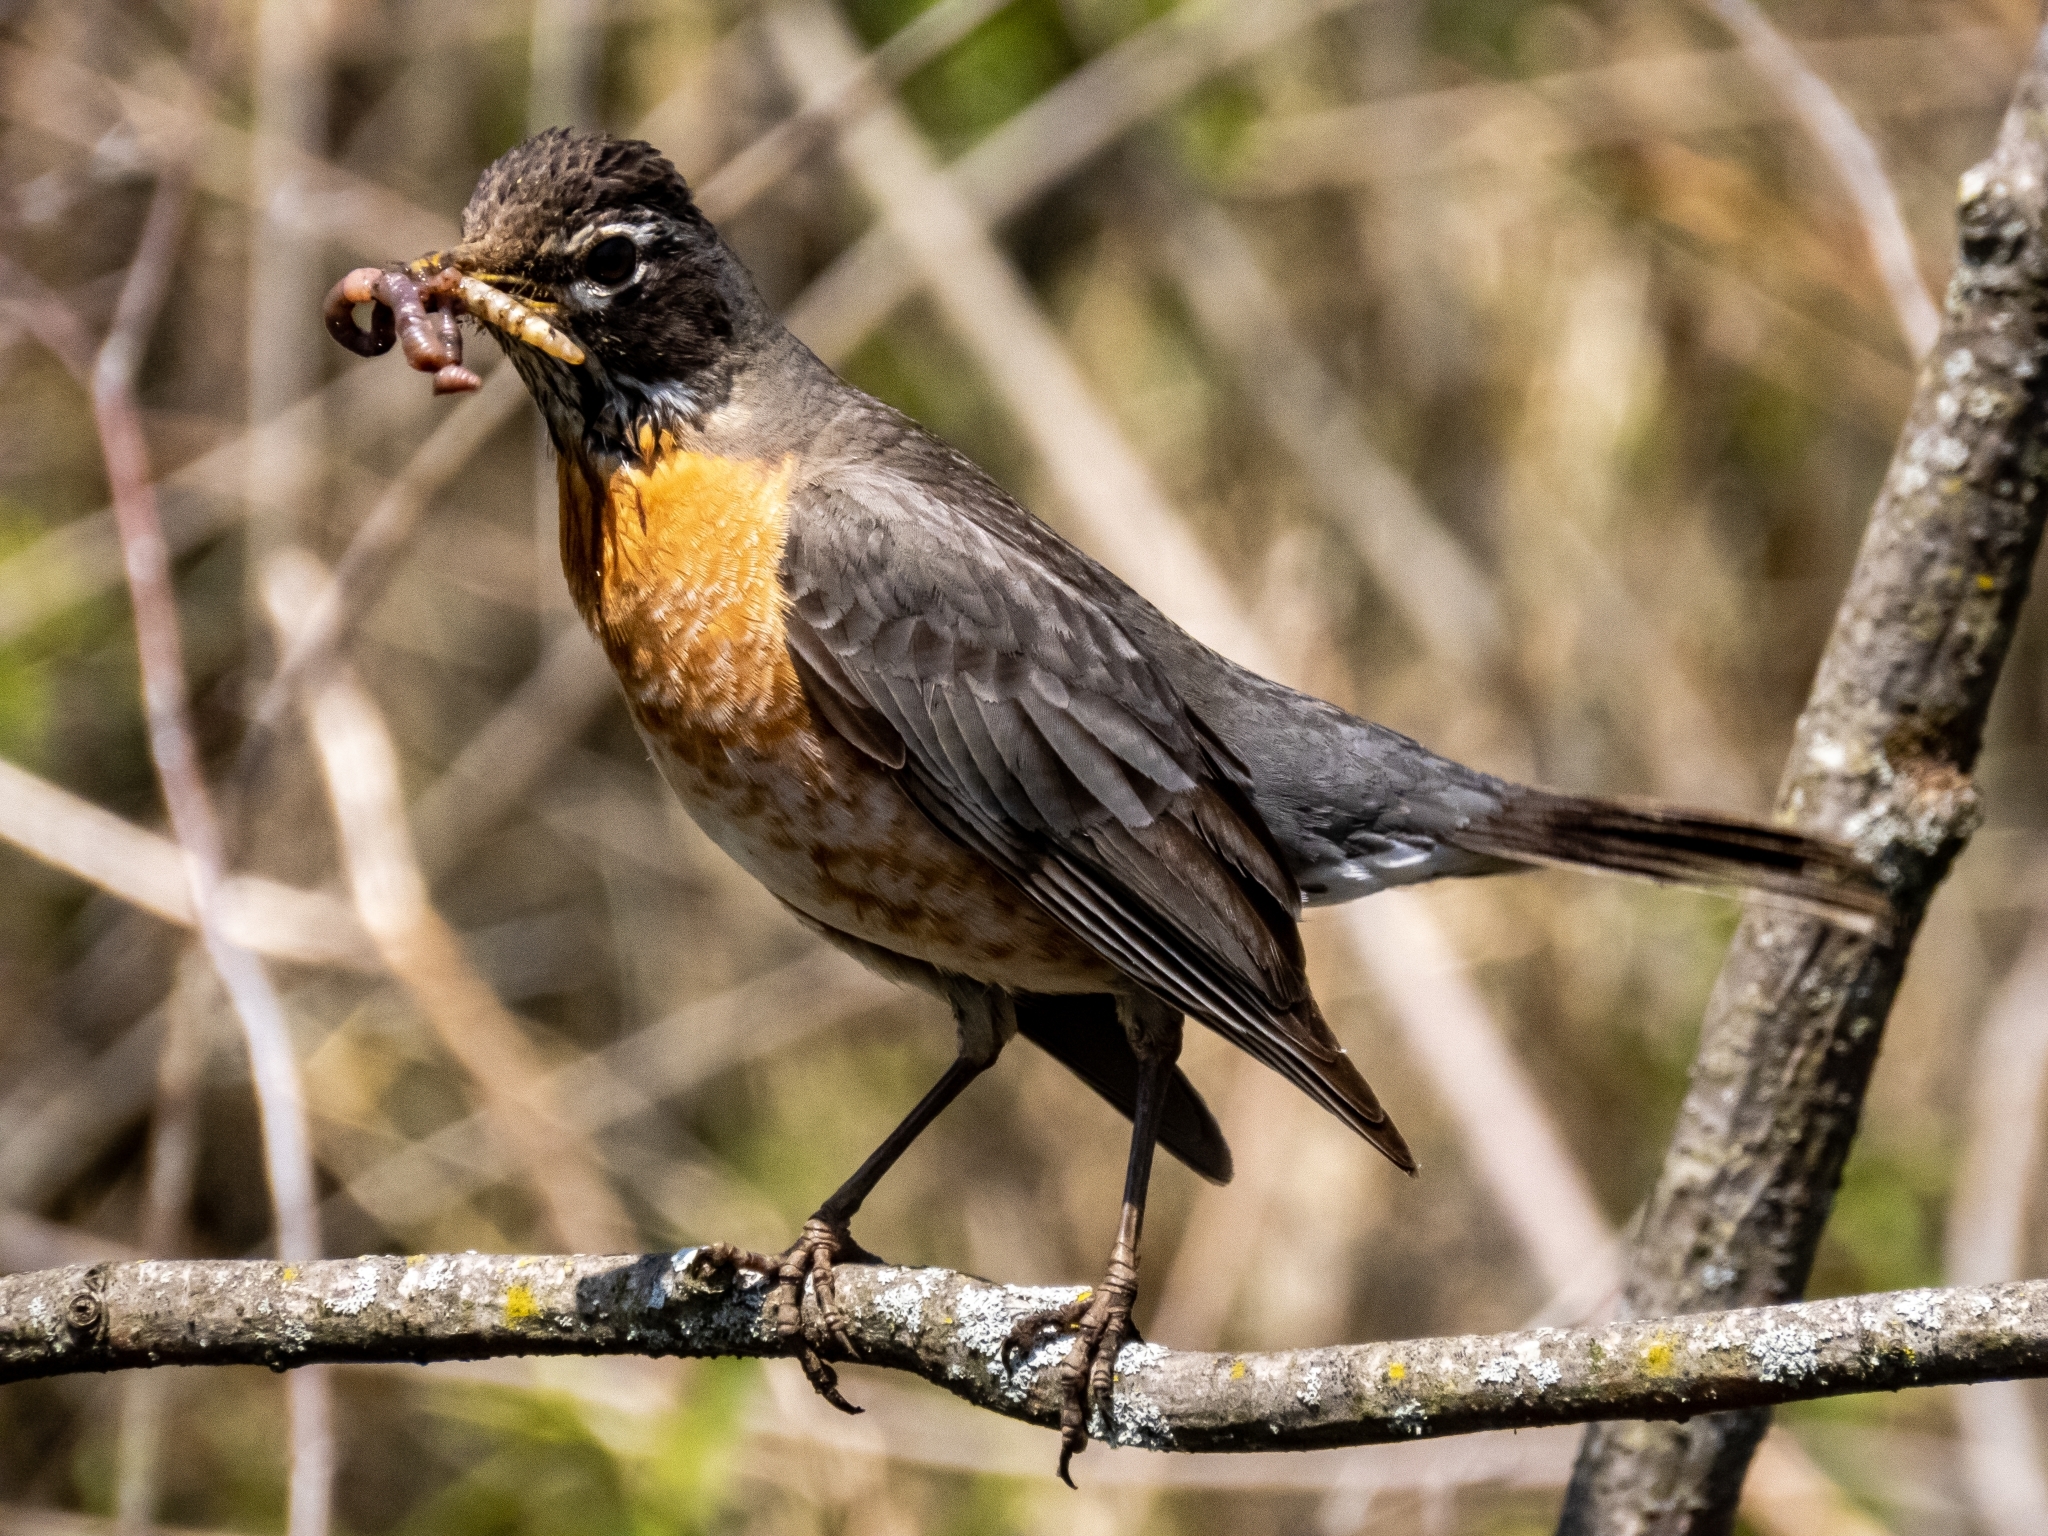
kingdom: Animalia
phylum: Chordata
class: Aves
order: Passeriformes
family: Turdidae
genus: Turdus
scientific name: Turdus migratorius
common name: American robin
